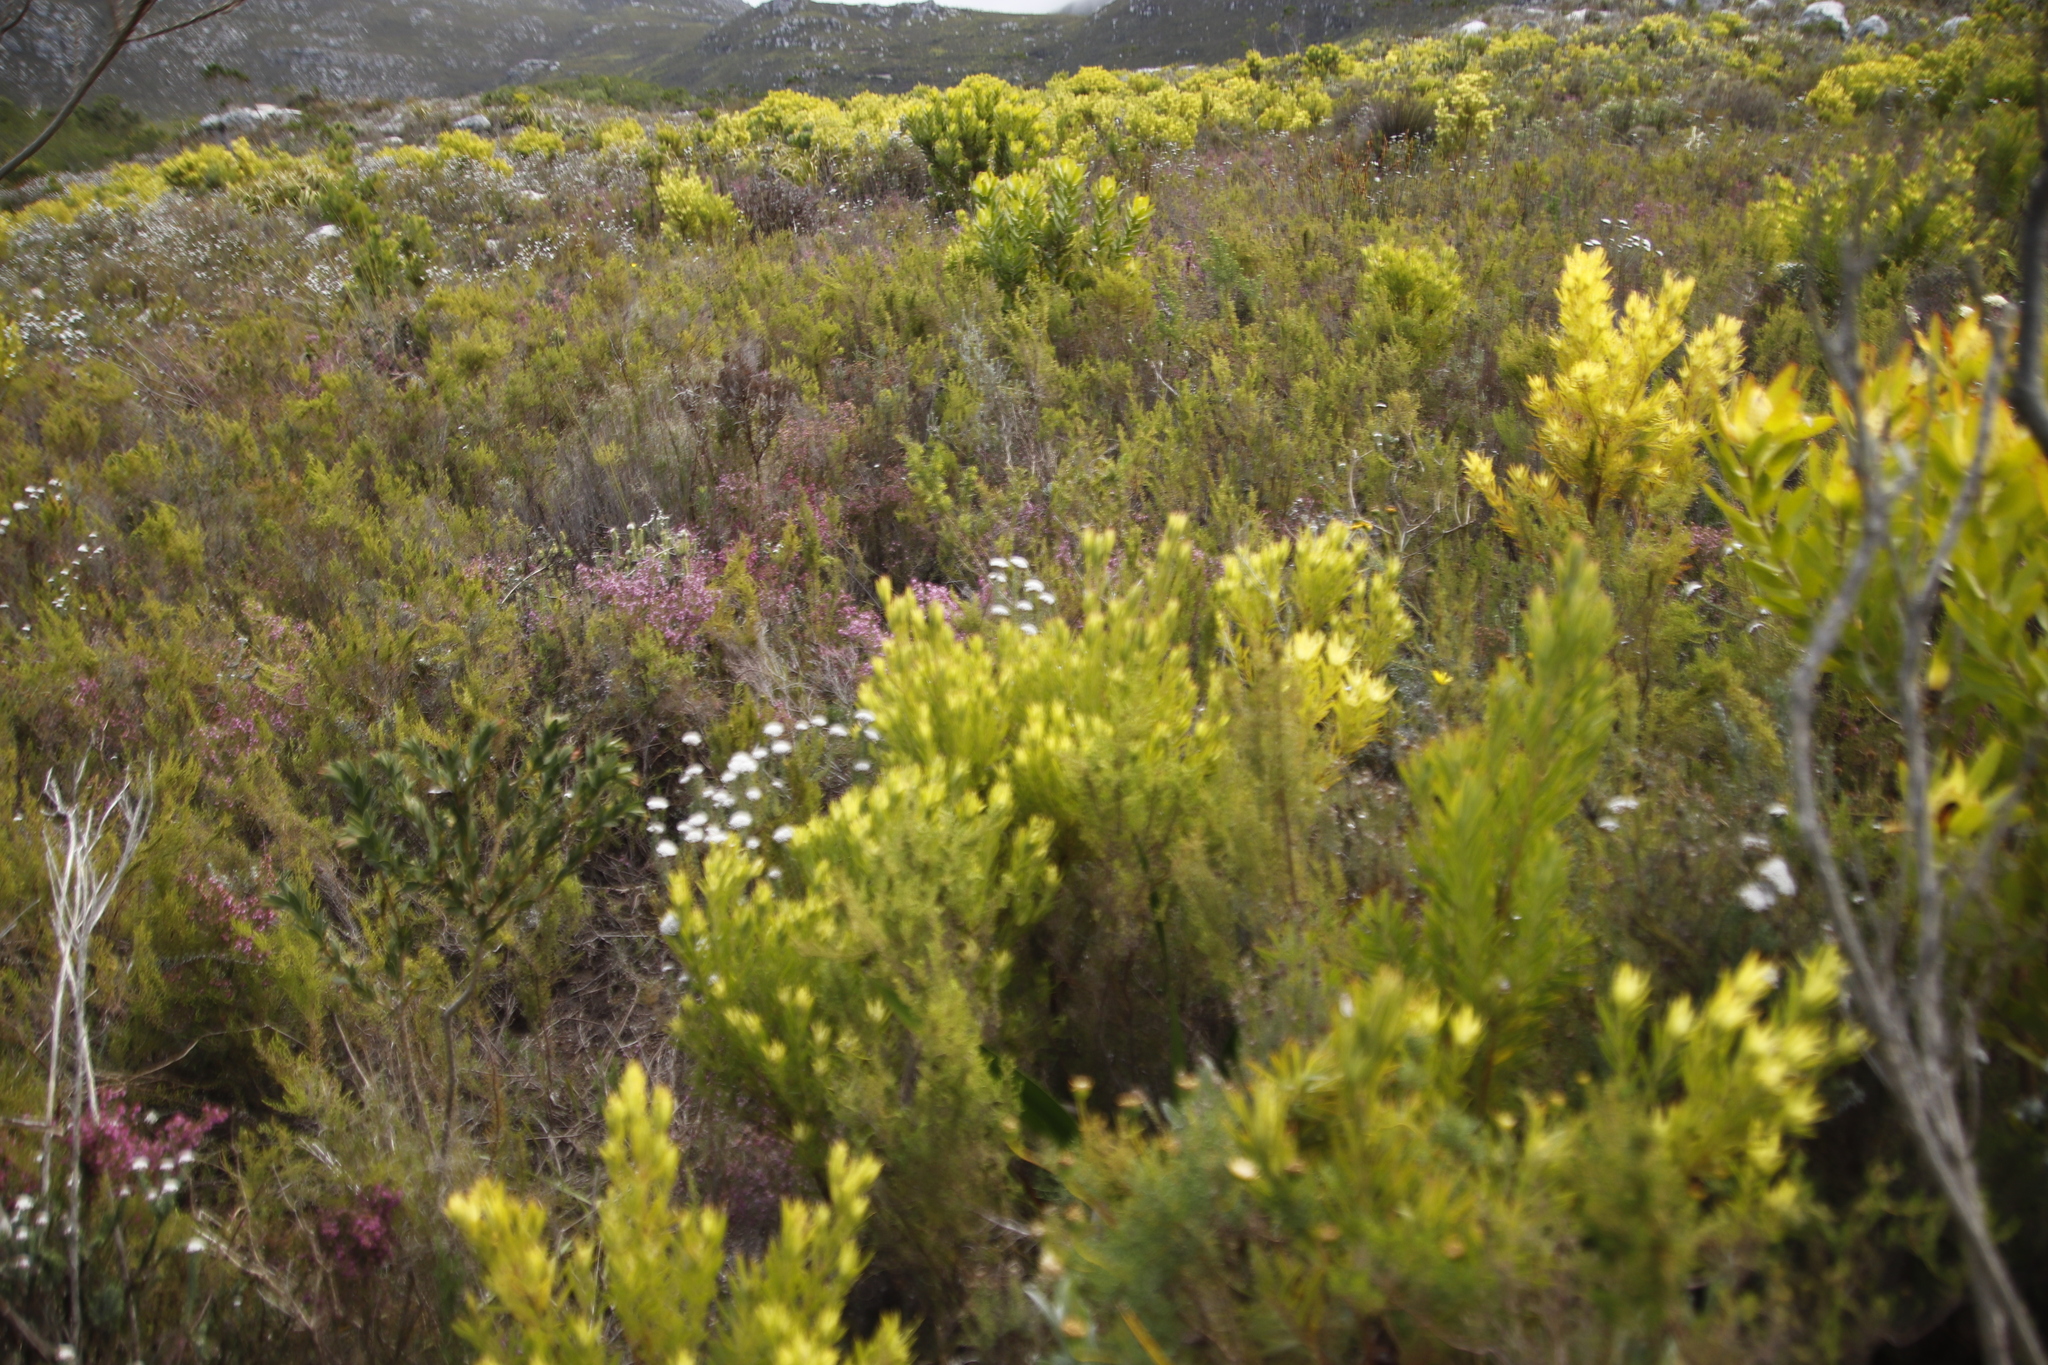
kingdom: Plantae
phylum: Tracheophyta
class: Magnoliopsida
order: Proteales
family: Proteaceae
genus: Leucadendron
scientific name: Leucadendron xanthoconus
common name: Sickle-leaf conebush
